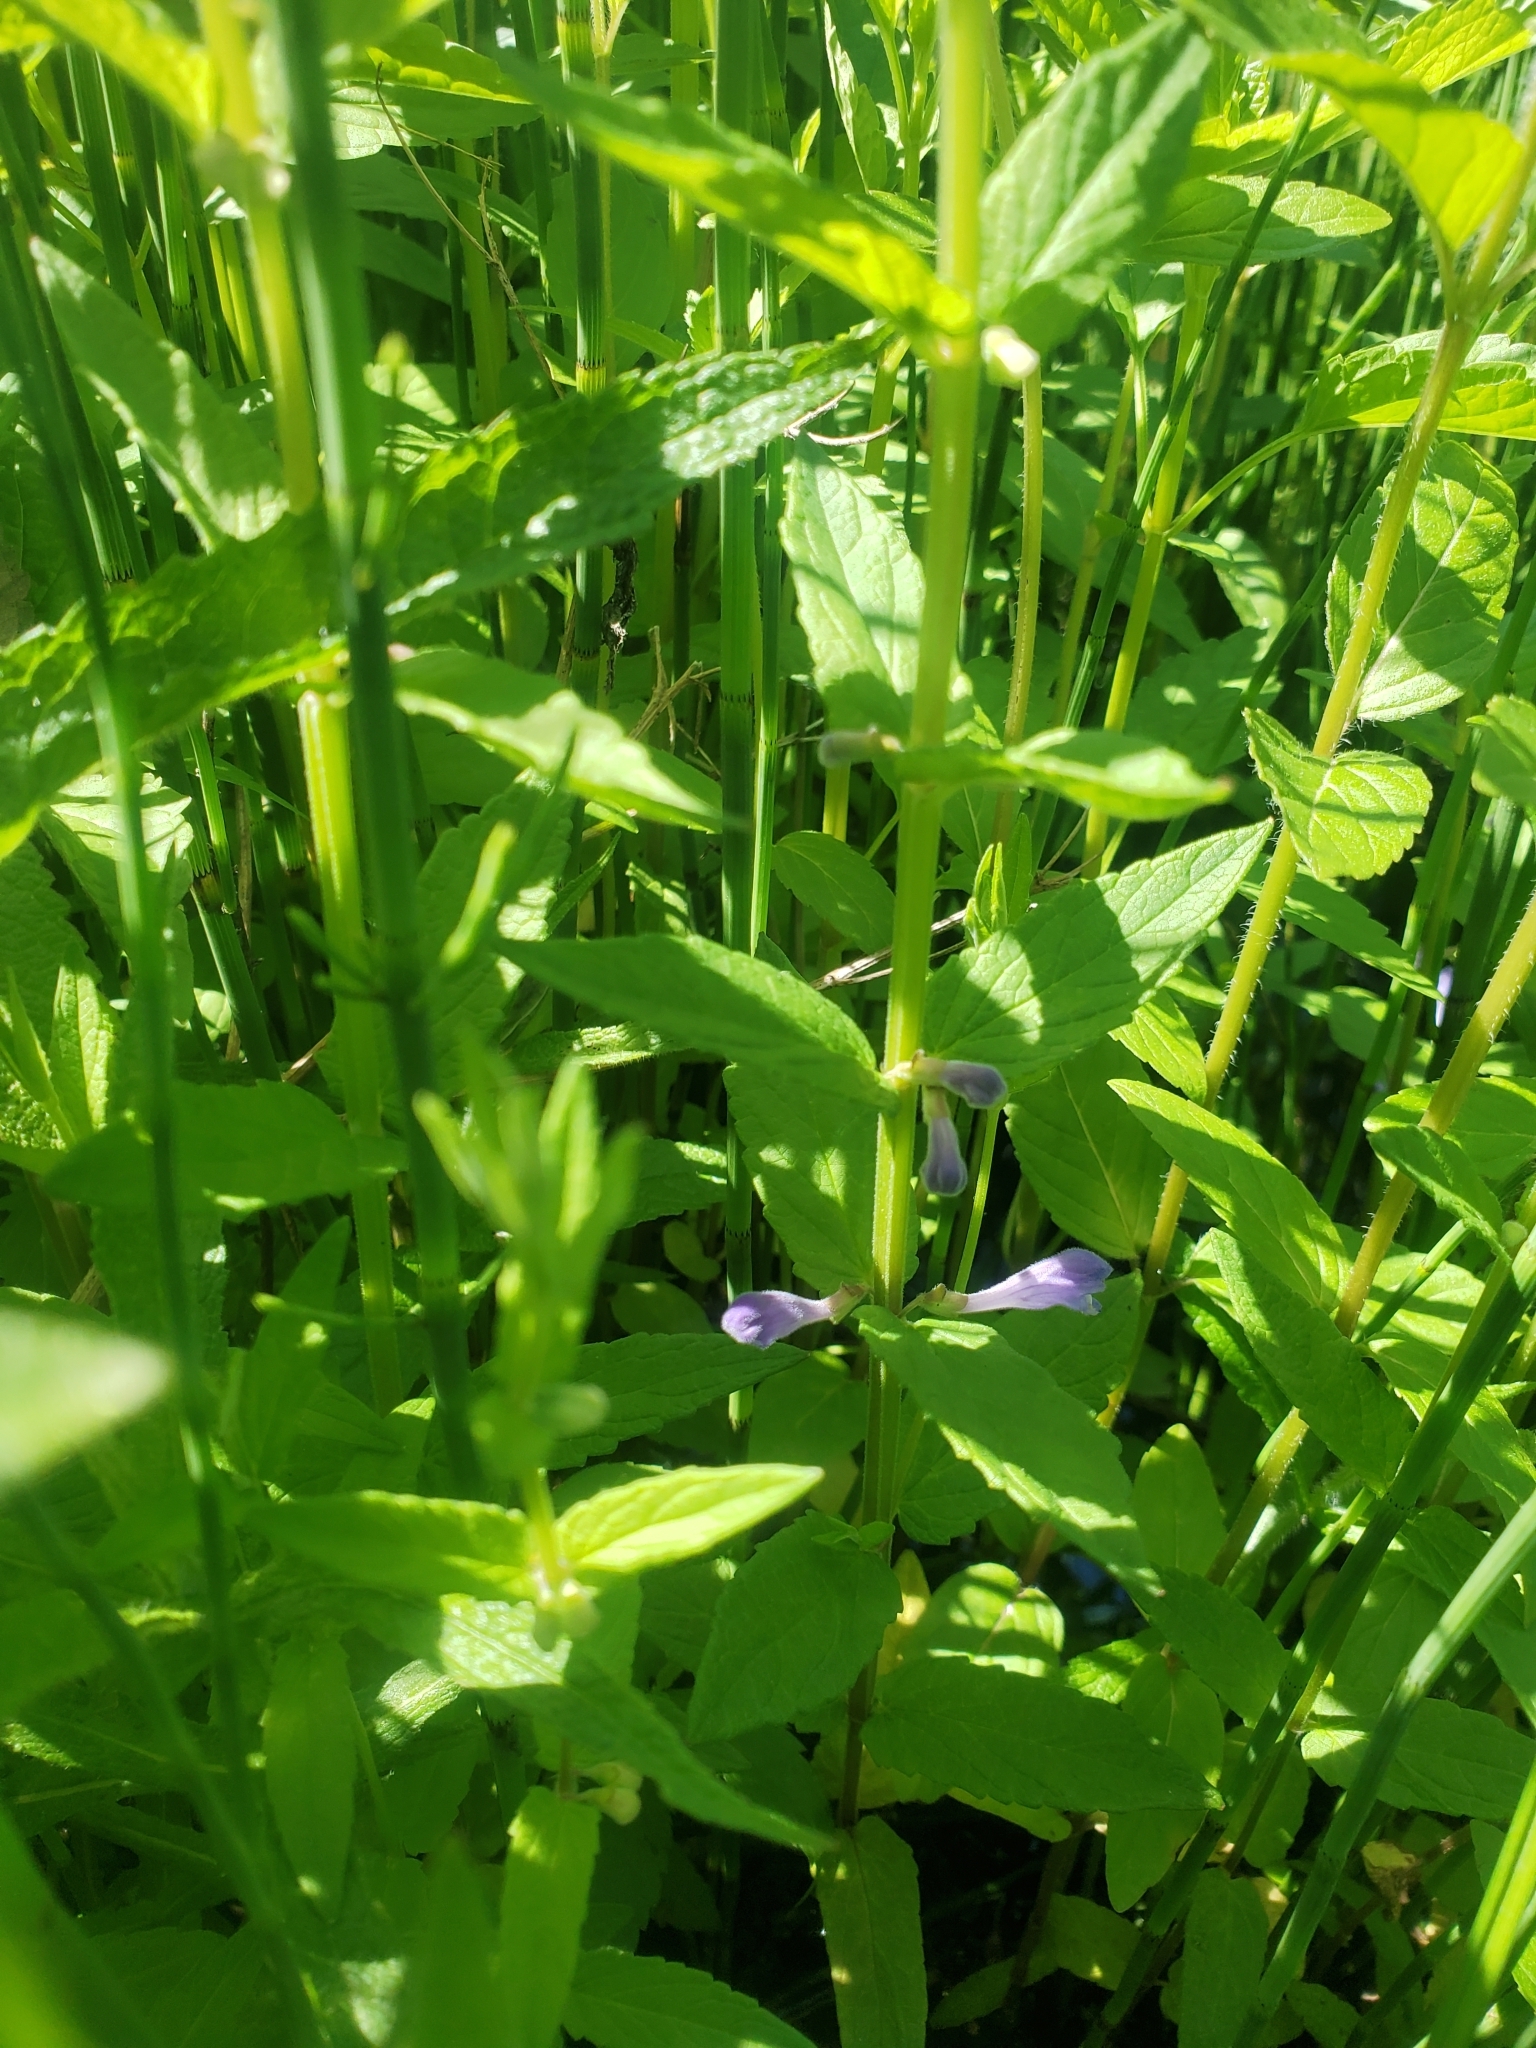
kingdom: Plantae
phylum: Tracheophyta
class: Magnoliopsida
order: Lamiales
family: Lamiaceae
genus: Scutellaria
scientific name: Scutellaria galericulata
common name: Skullcap
